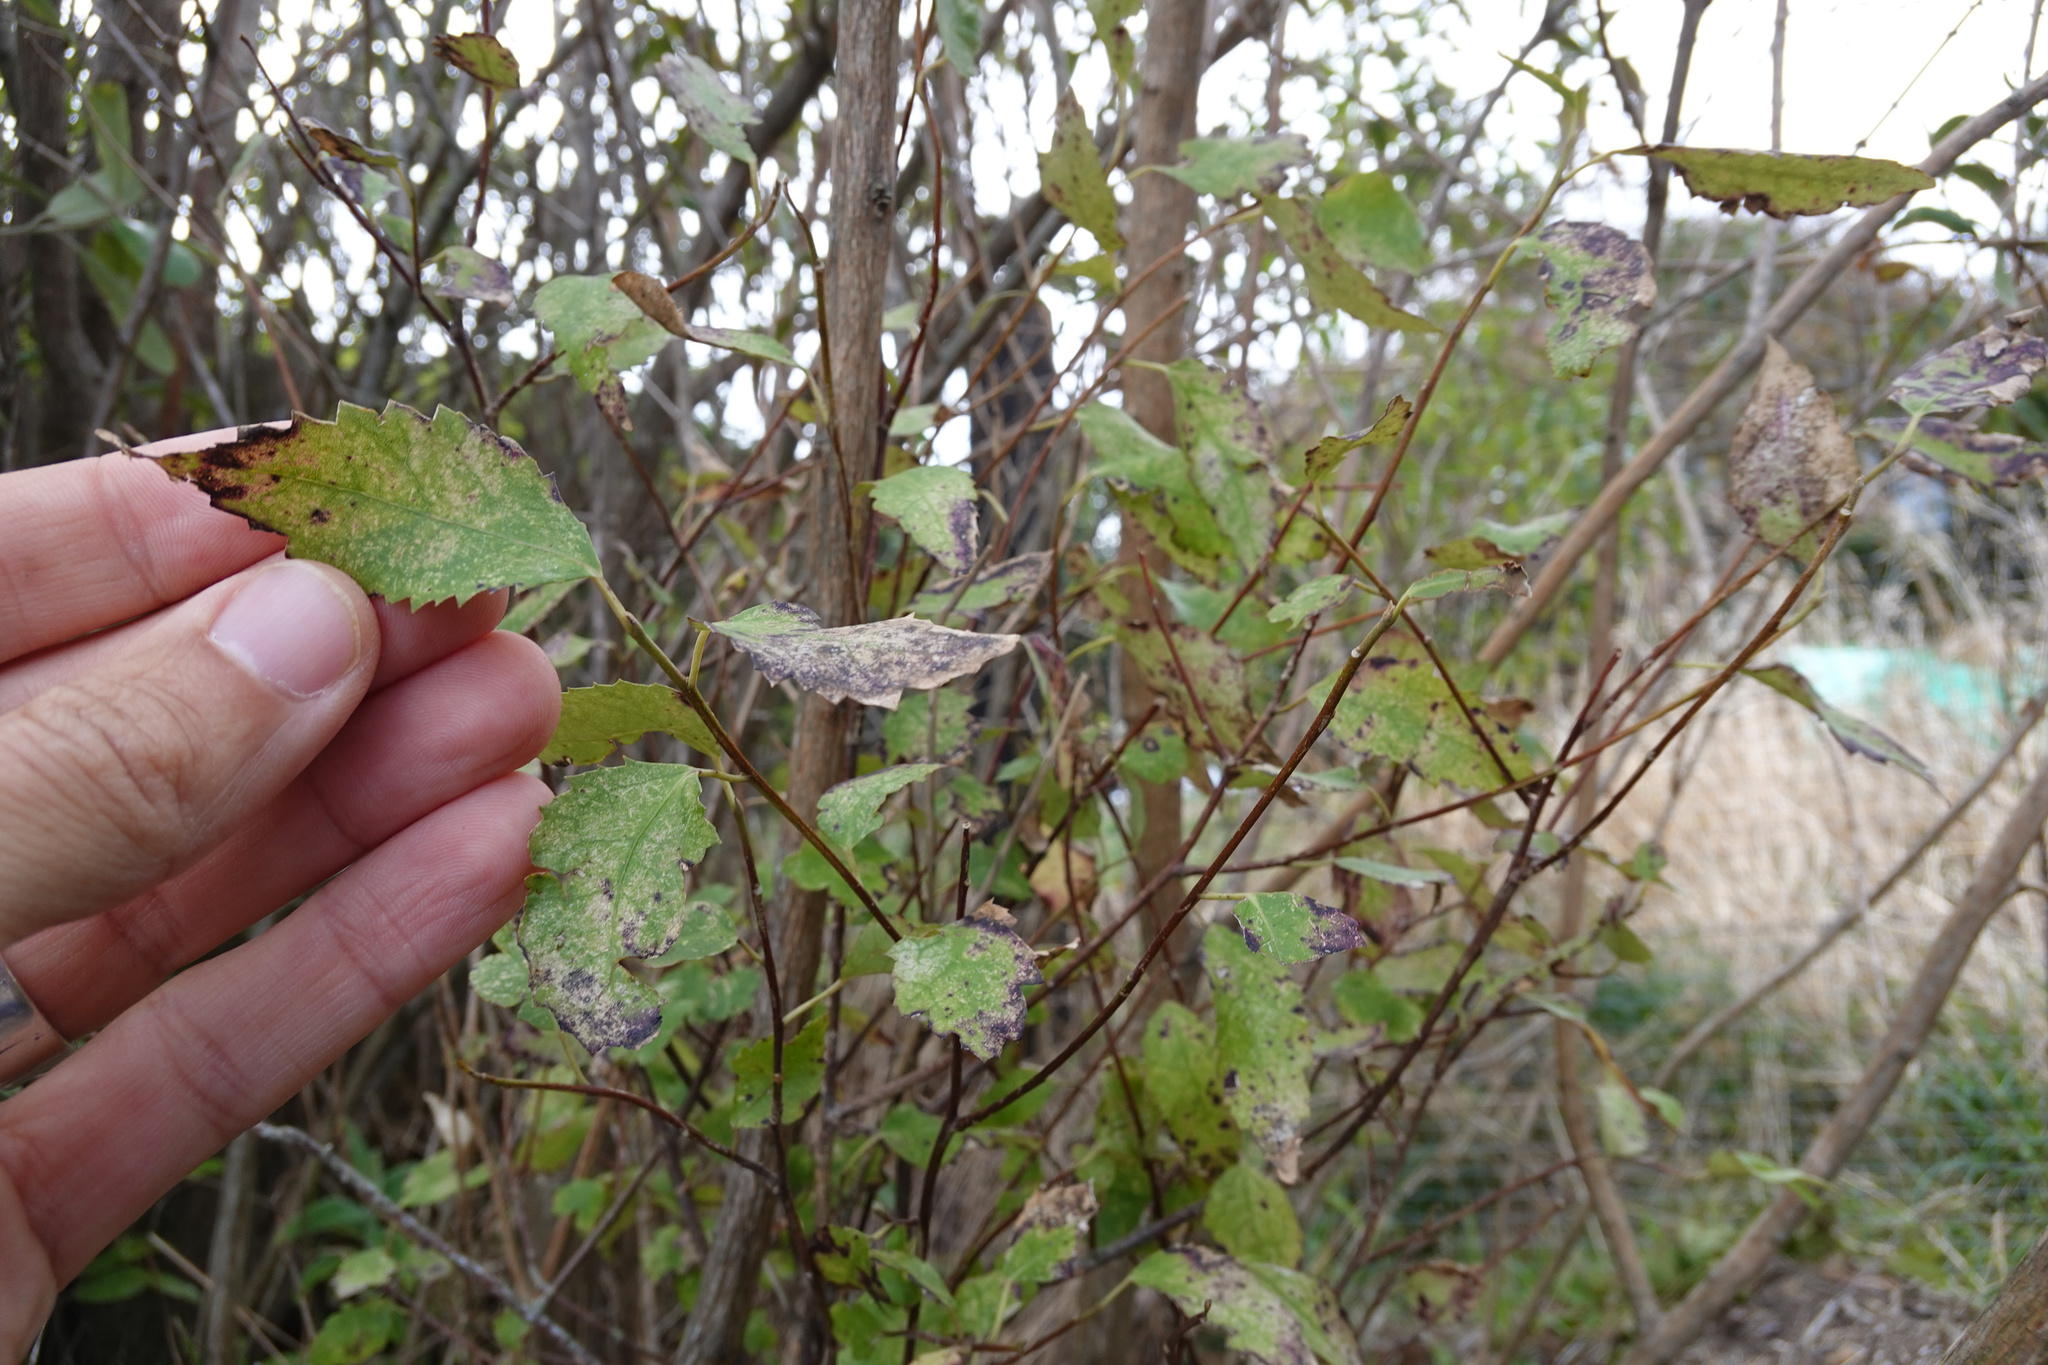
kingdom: Plantae
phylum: Tracheophyta
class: Magnoliopsida
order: Malvales
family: Malvaceae
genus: Hoheria
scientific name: Hoheria populnea
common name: Lacebark
